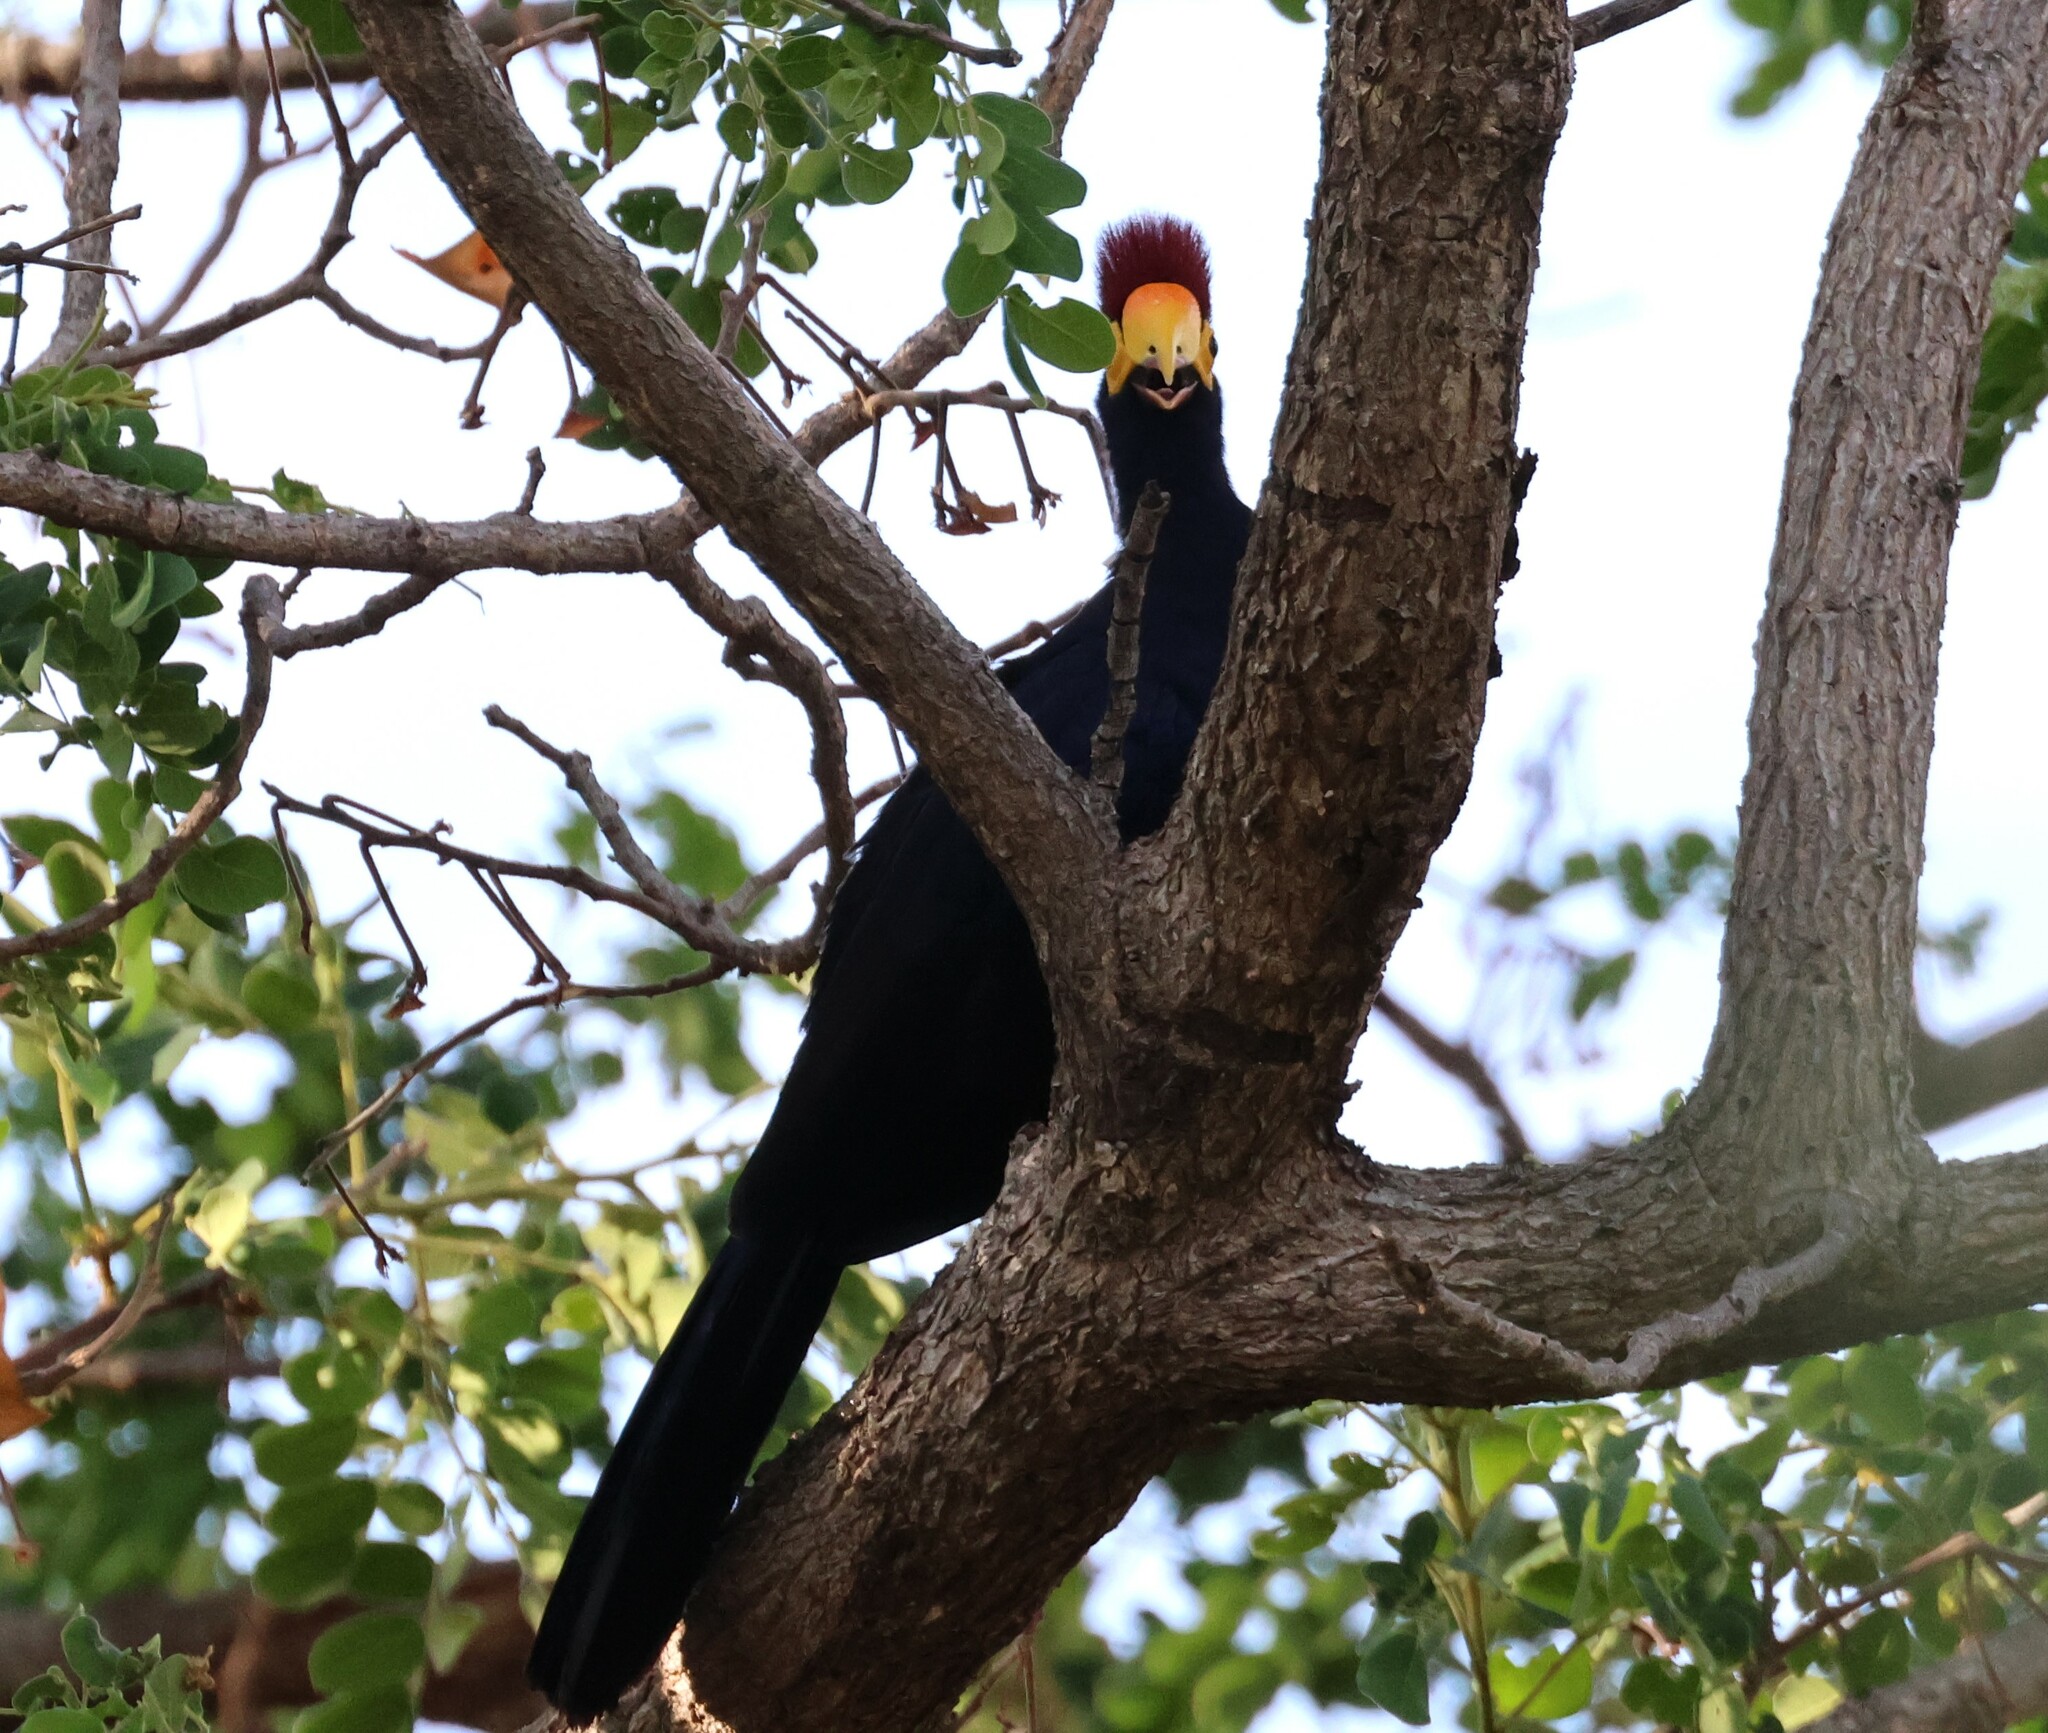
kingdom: Animalia
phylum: Chordata
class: Aves
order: Musophagiformes
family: Musophagidae
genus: Musophaga
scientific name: Musophaga rossae
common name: Ross's turaco
